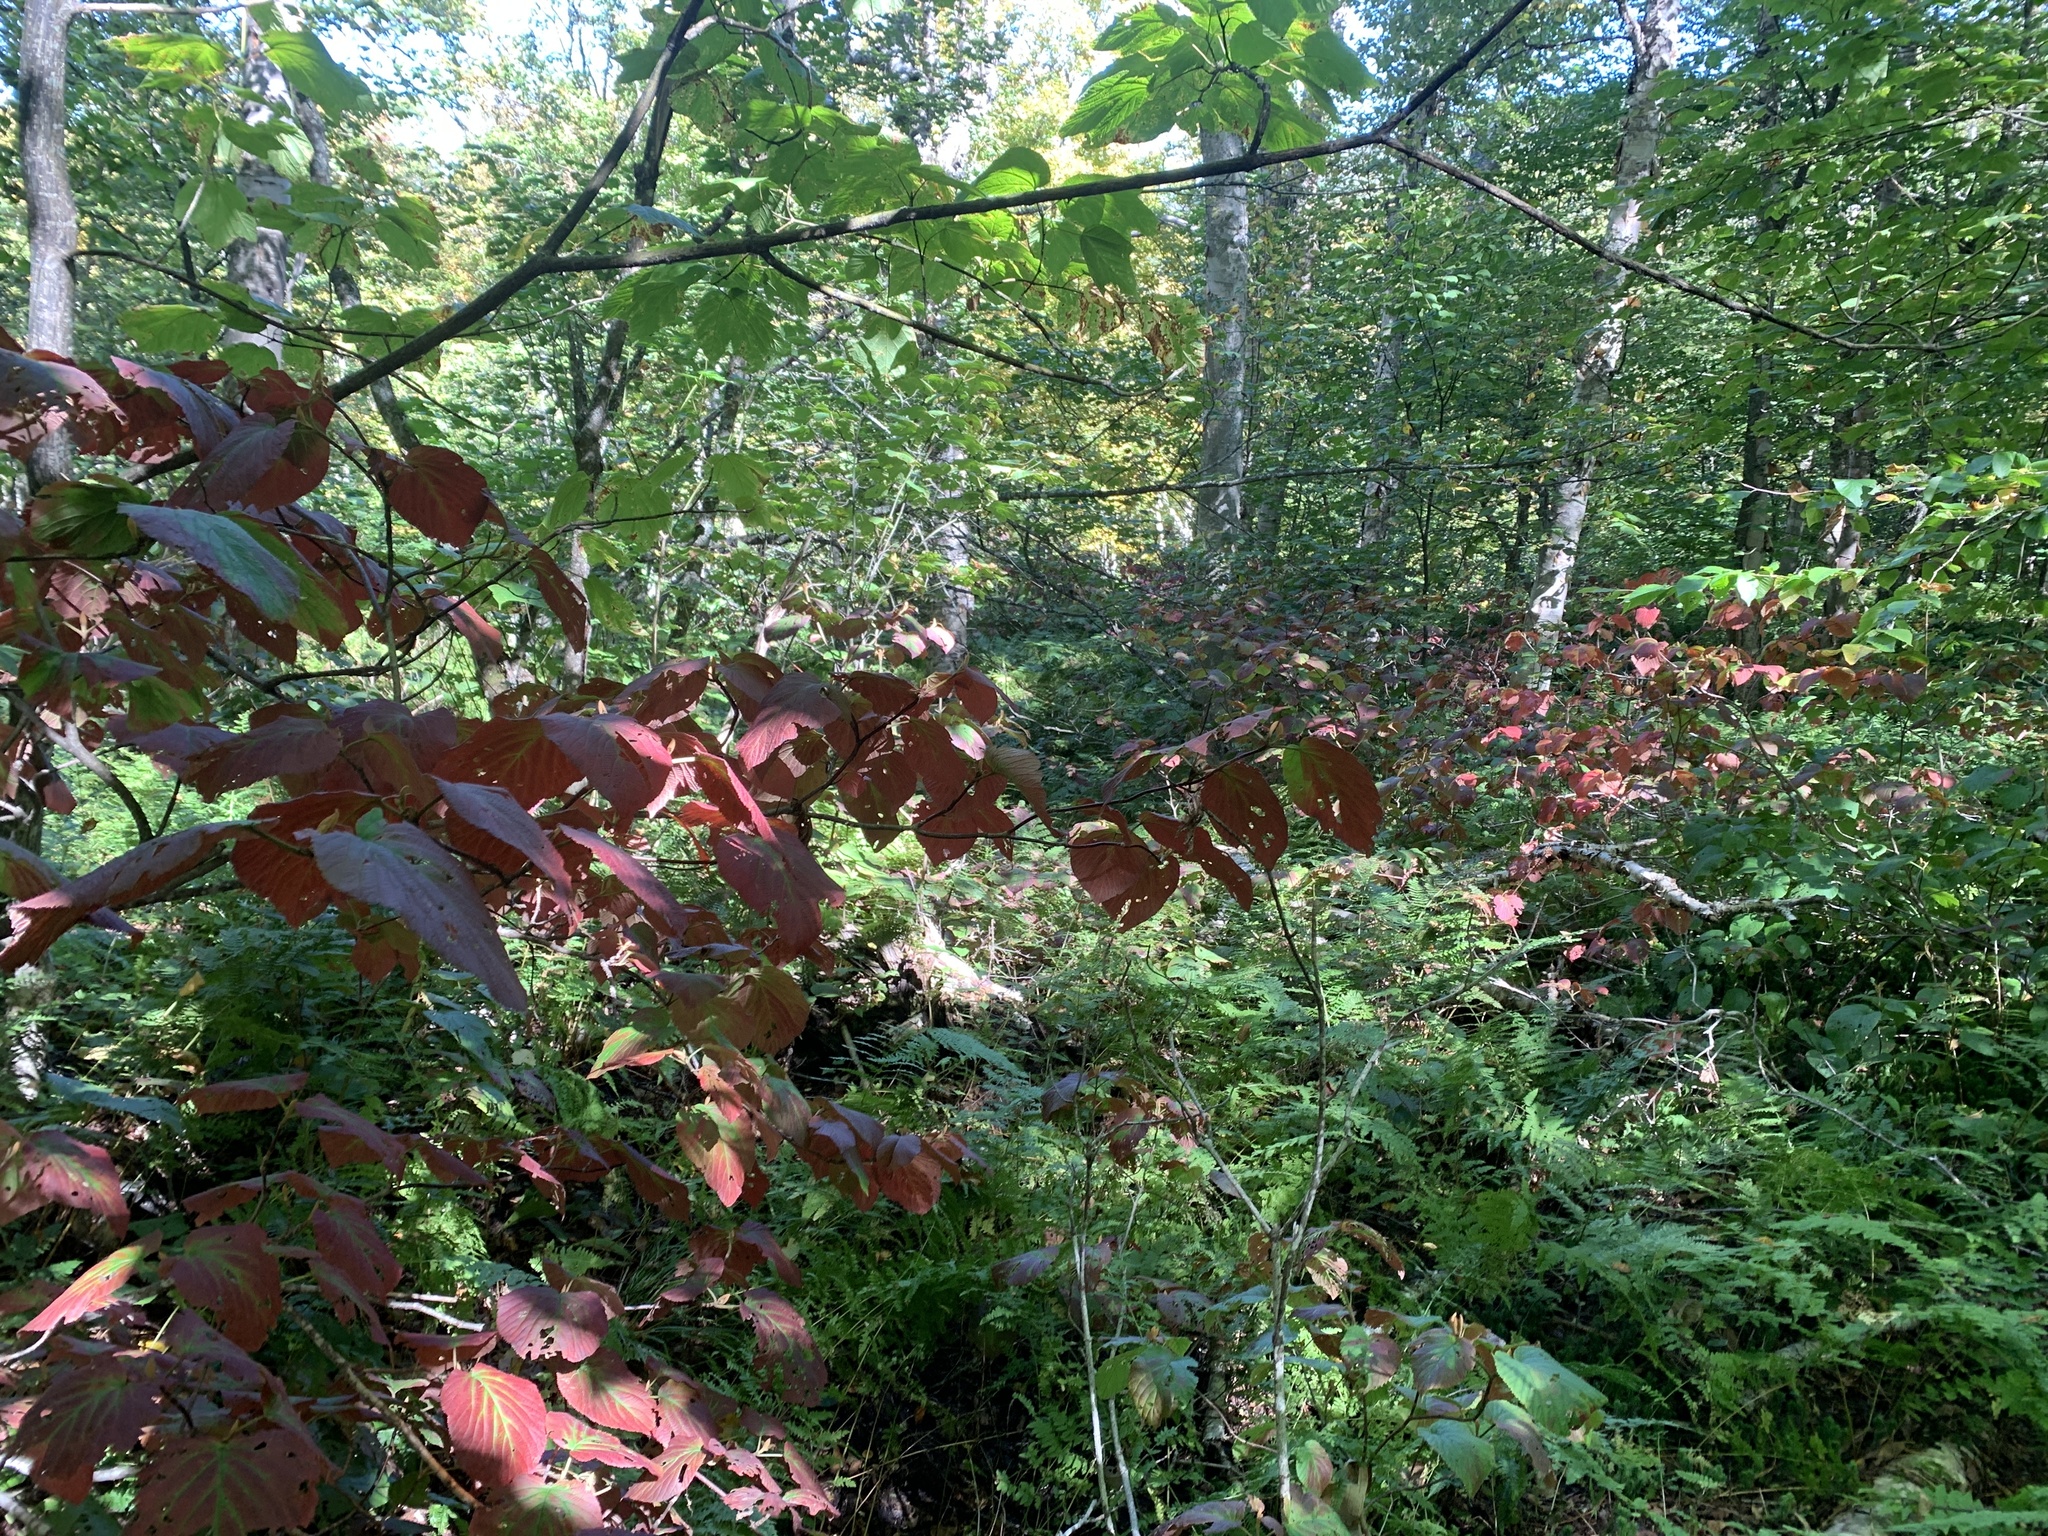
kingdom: Plantae
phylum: Tracheophyta
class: Magnoliopsida
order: Dipsacales
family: Viburnaceae
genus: Viburnum
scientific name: Viburnum lantanoides
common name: Hobblebush
